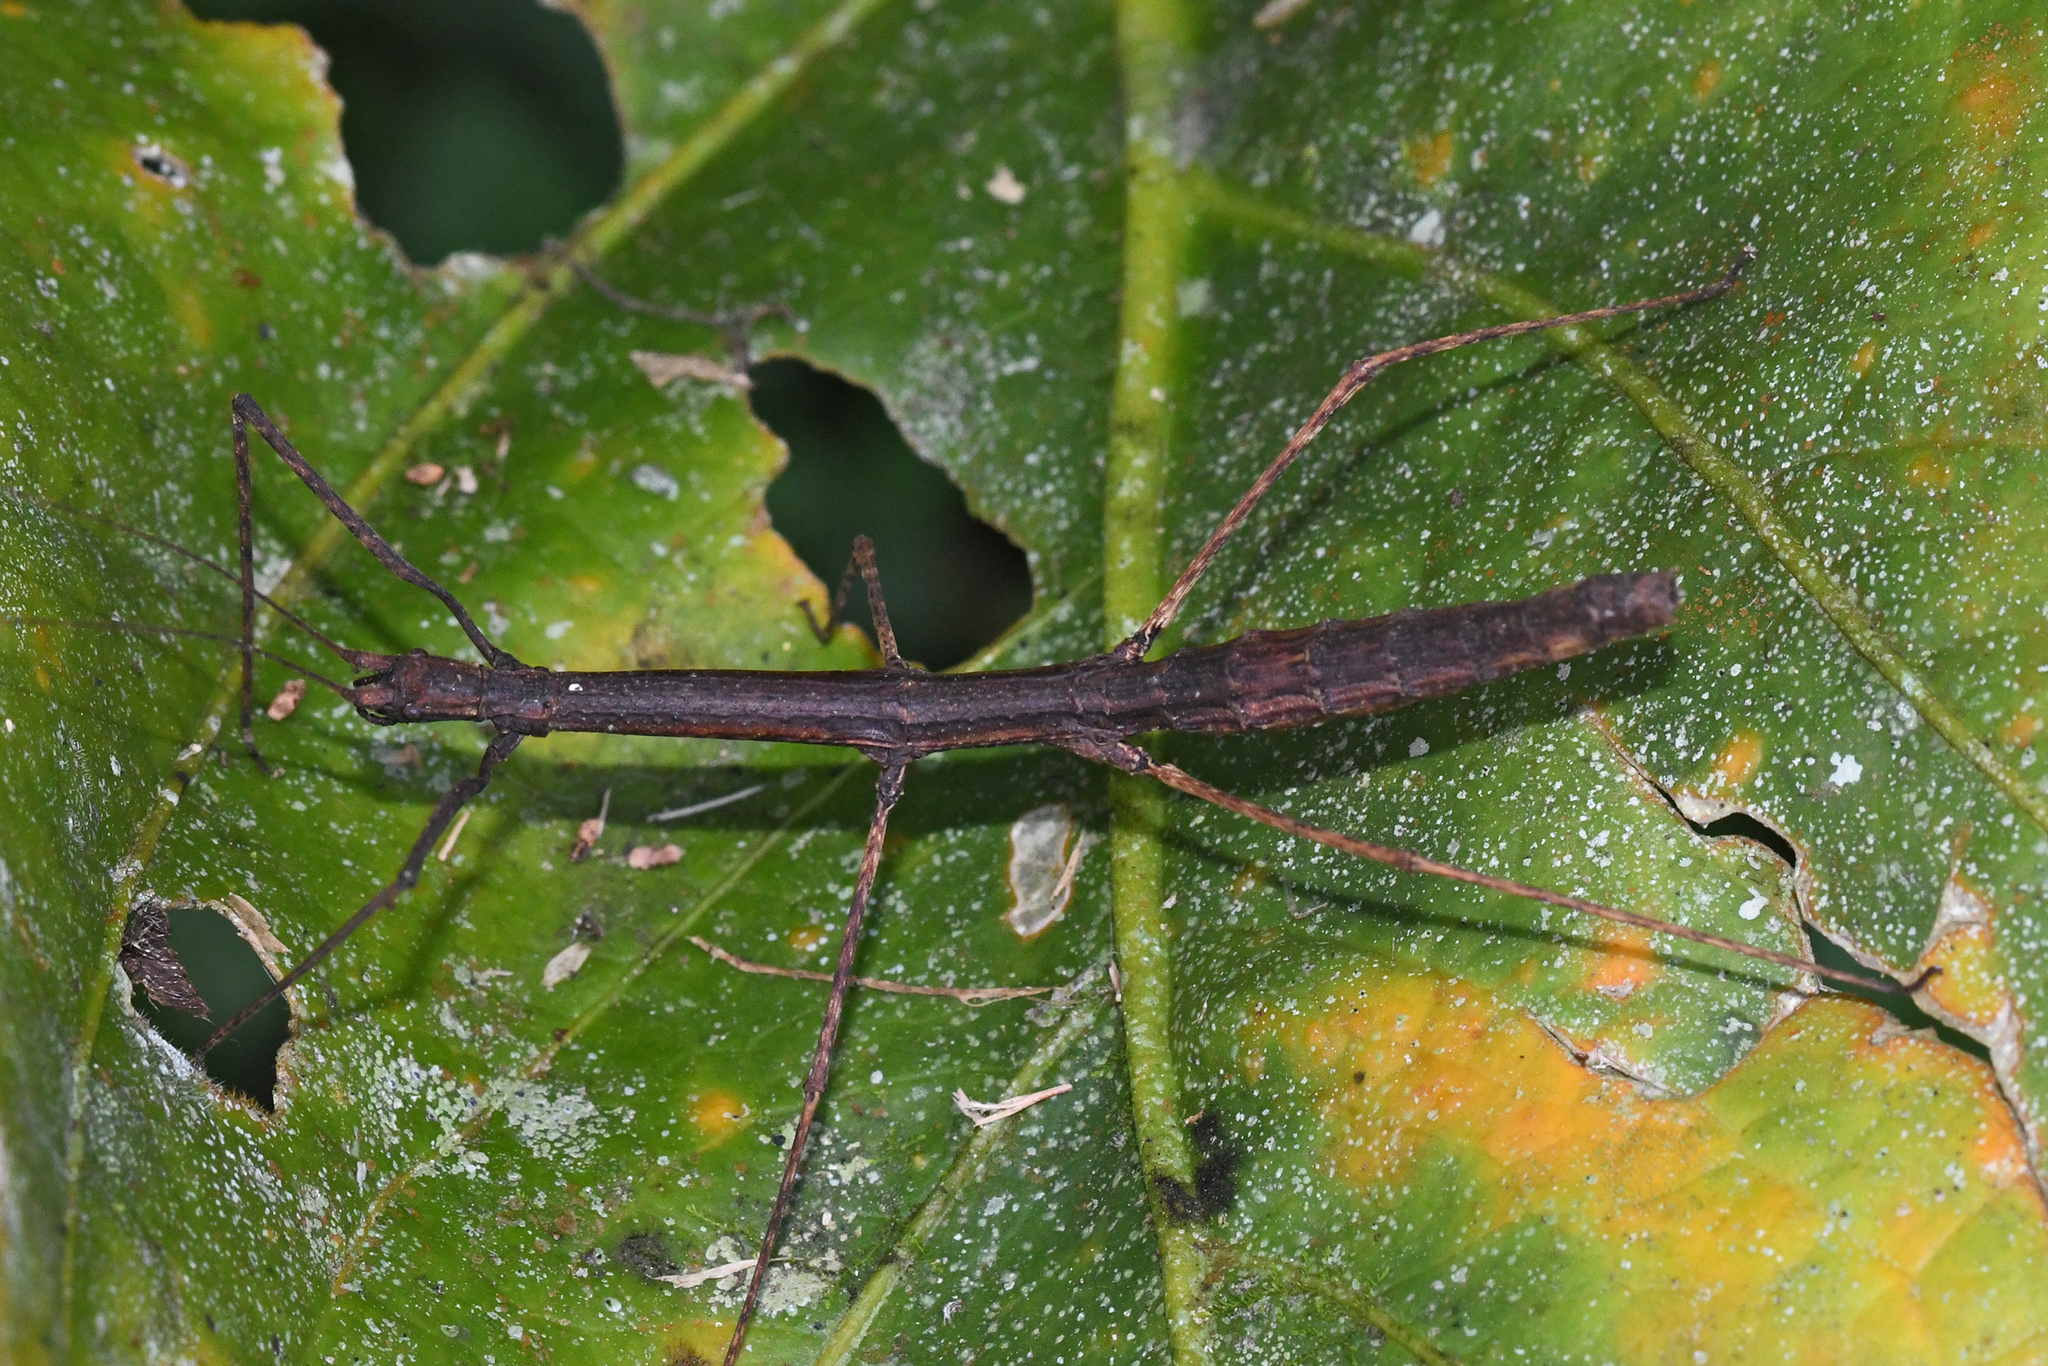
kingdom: Animalia
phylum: Arthropoda
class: Insecta
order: Phasmida
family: Diapheromeridae
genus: Ocnophiloidea
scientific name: Ocnophiloidea regularis
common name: Trinidad twig
